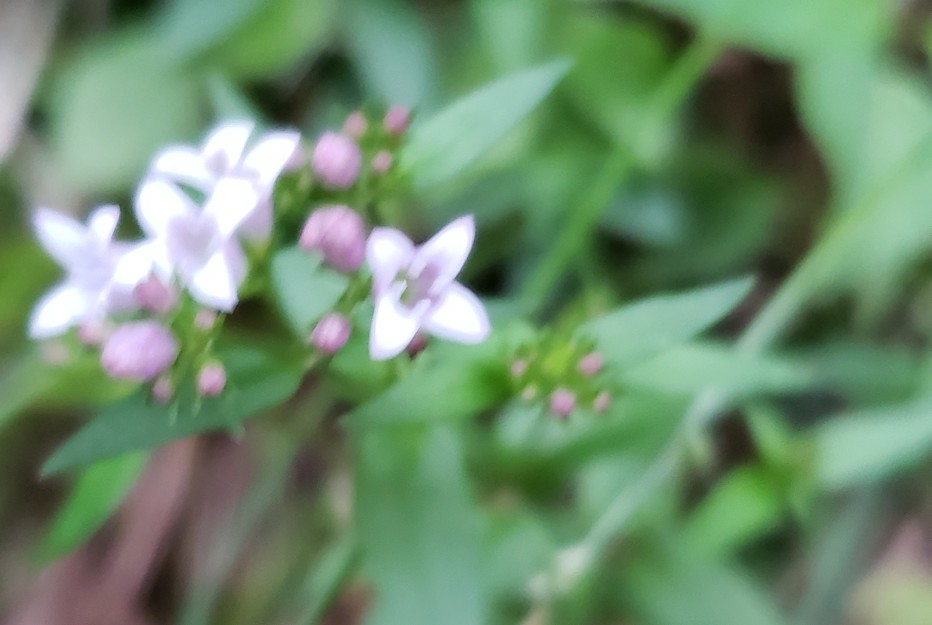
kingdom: Plantae
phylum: Tracheophyta
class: Magnoliopsida
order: Gentianales
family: Rubiaceae
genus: Houstonia
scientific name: Houstonia purpurea
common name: Summer bluet
